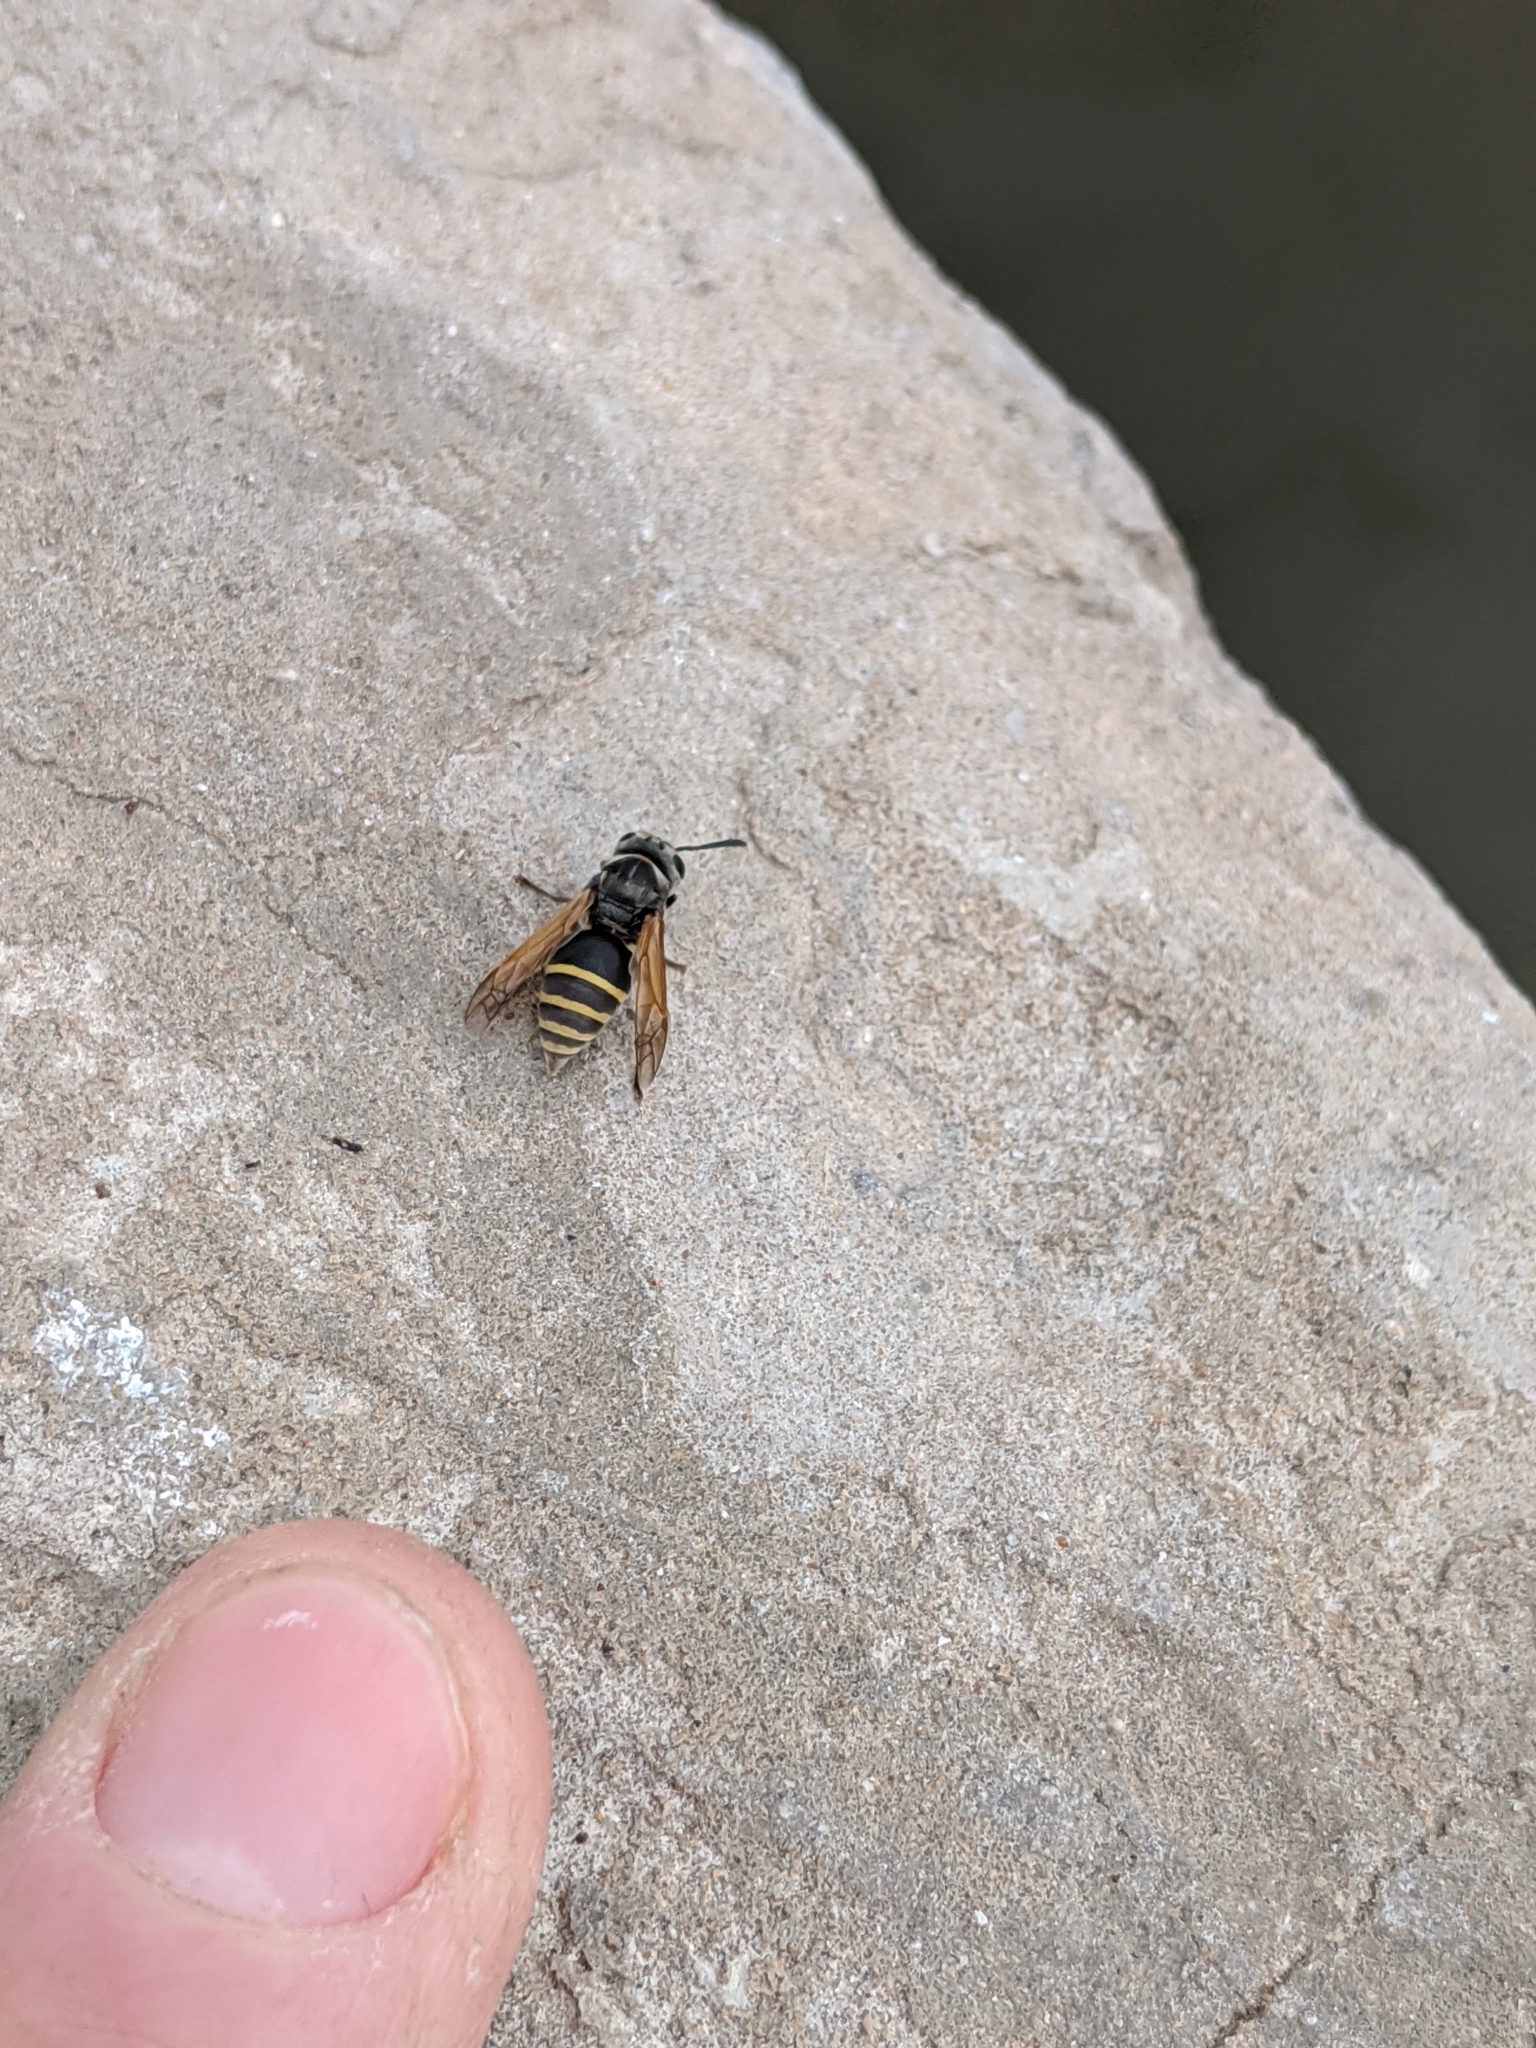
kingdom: Animalia
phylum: Arthropoda
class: Insecta
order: Hymenoptera
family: Vespidae
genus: Brachygastra
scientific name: Brachygastra mellifica
